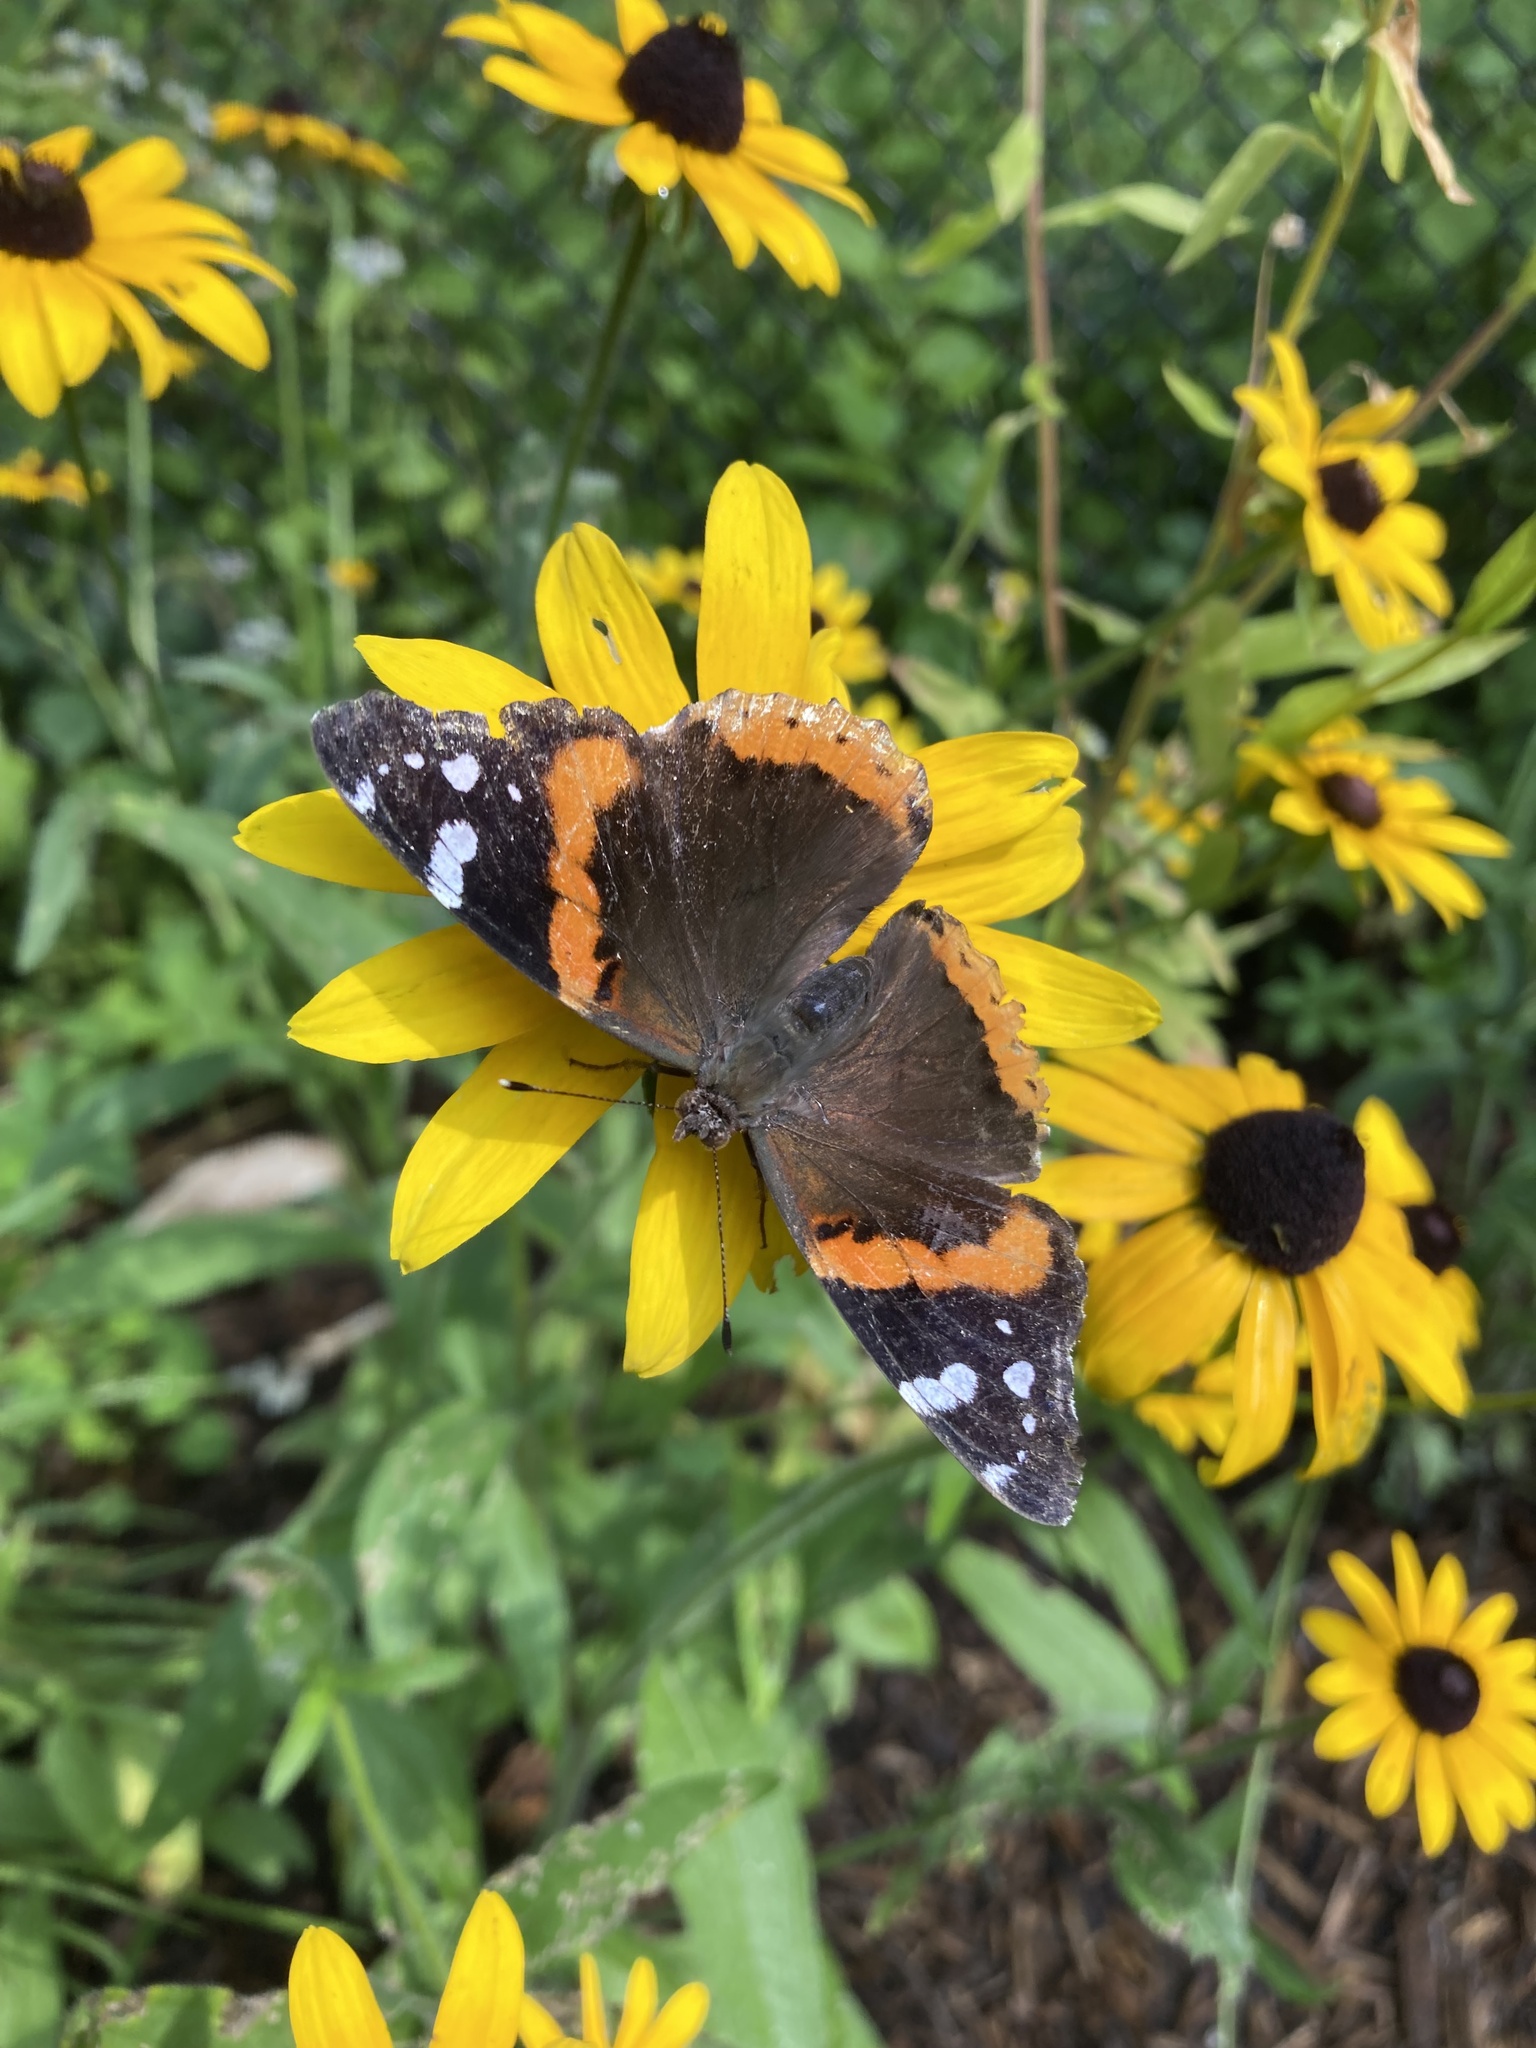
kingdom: Animalia
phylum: Arthropoda
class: Insecta
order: Lepidoptera
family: Nymphalidae
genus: Vanessa
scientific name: Vanessa atalanta
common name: Red admiral
